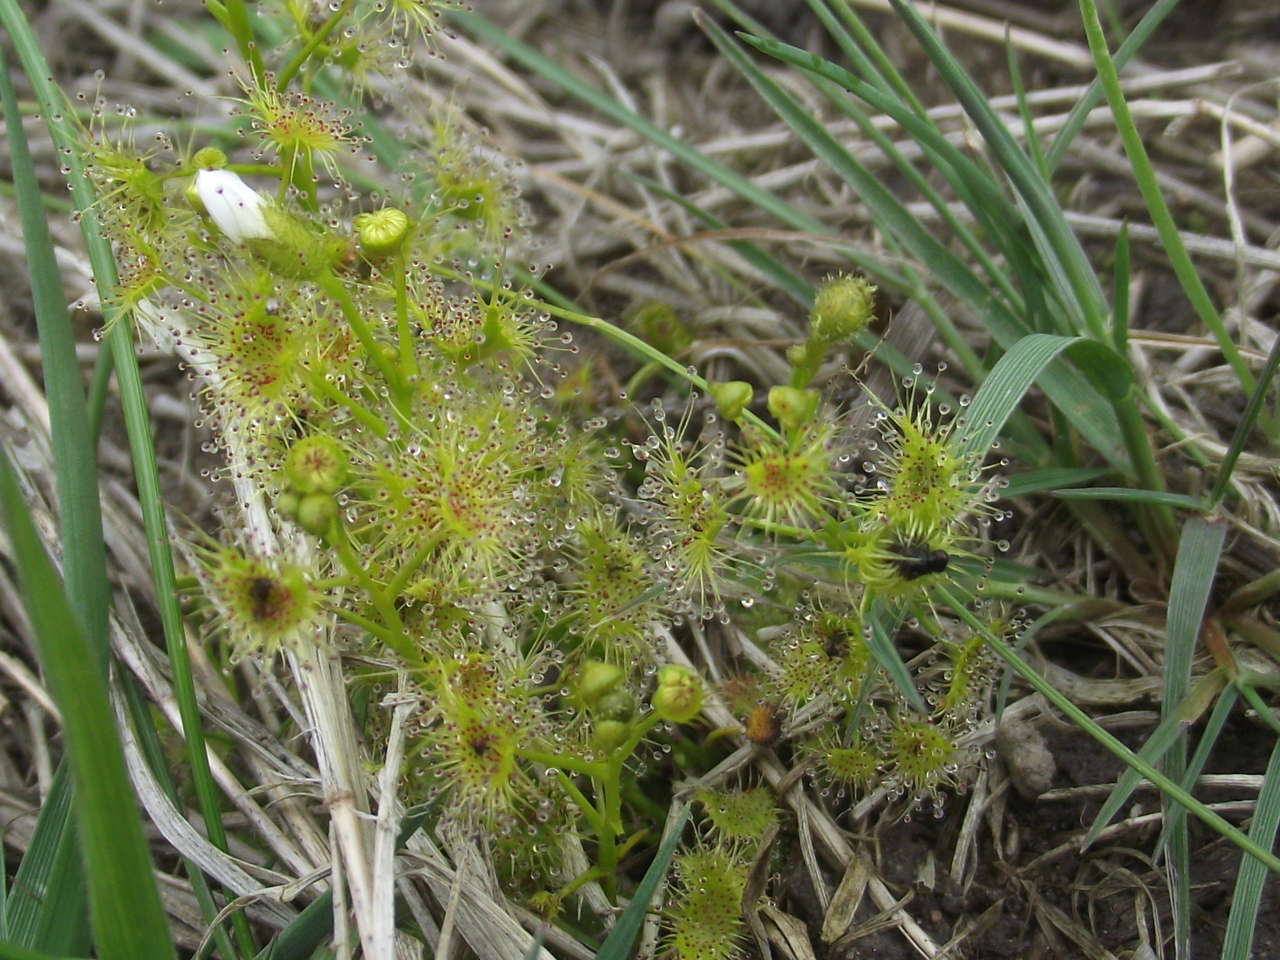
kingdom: Plantae
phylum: Tracheophyta
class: Magnoliopsida
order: Caryophyllales
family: Droseraceae
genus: Drosera
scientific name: Drosera hookeri
